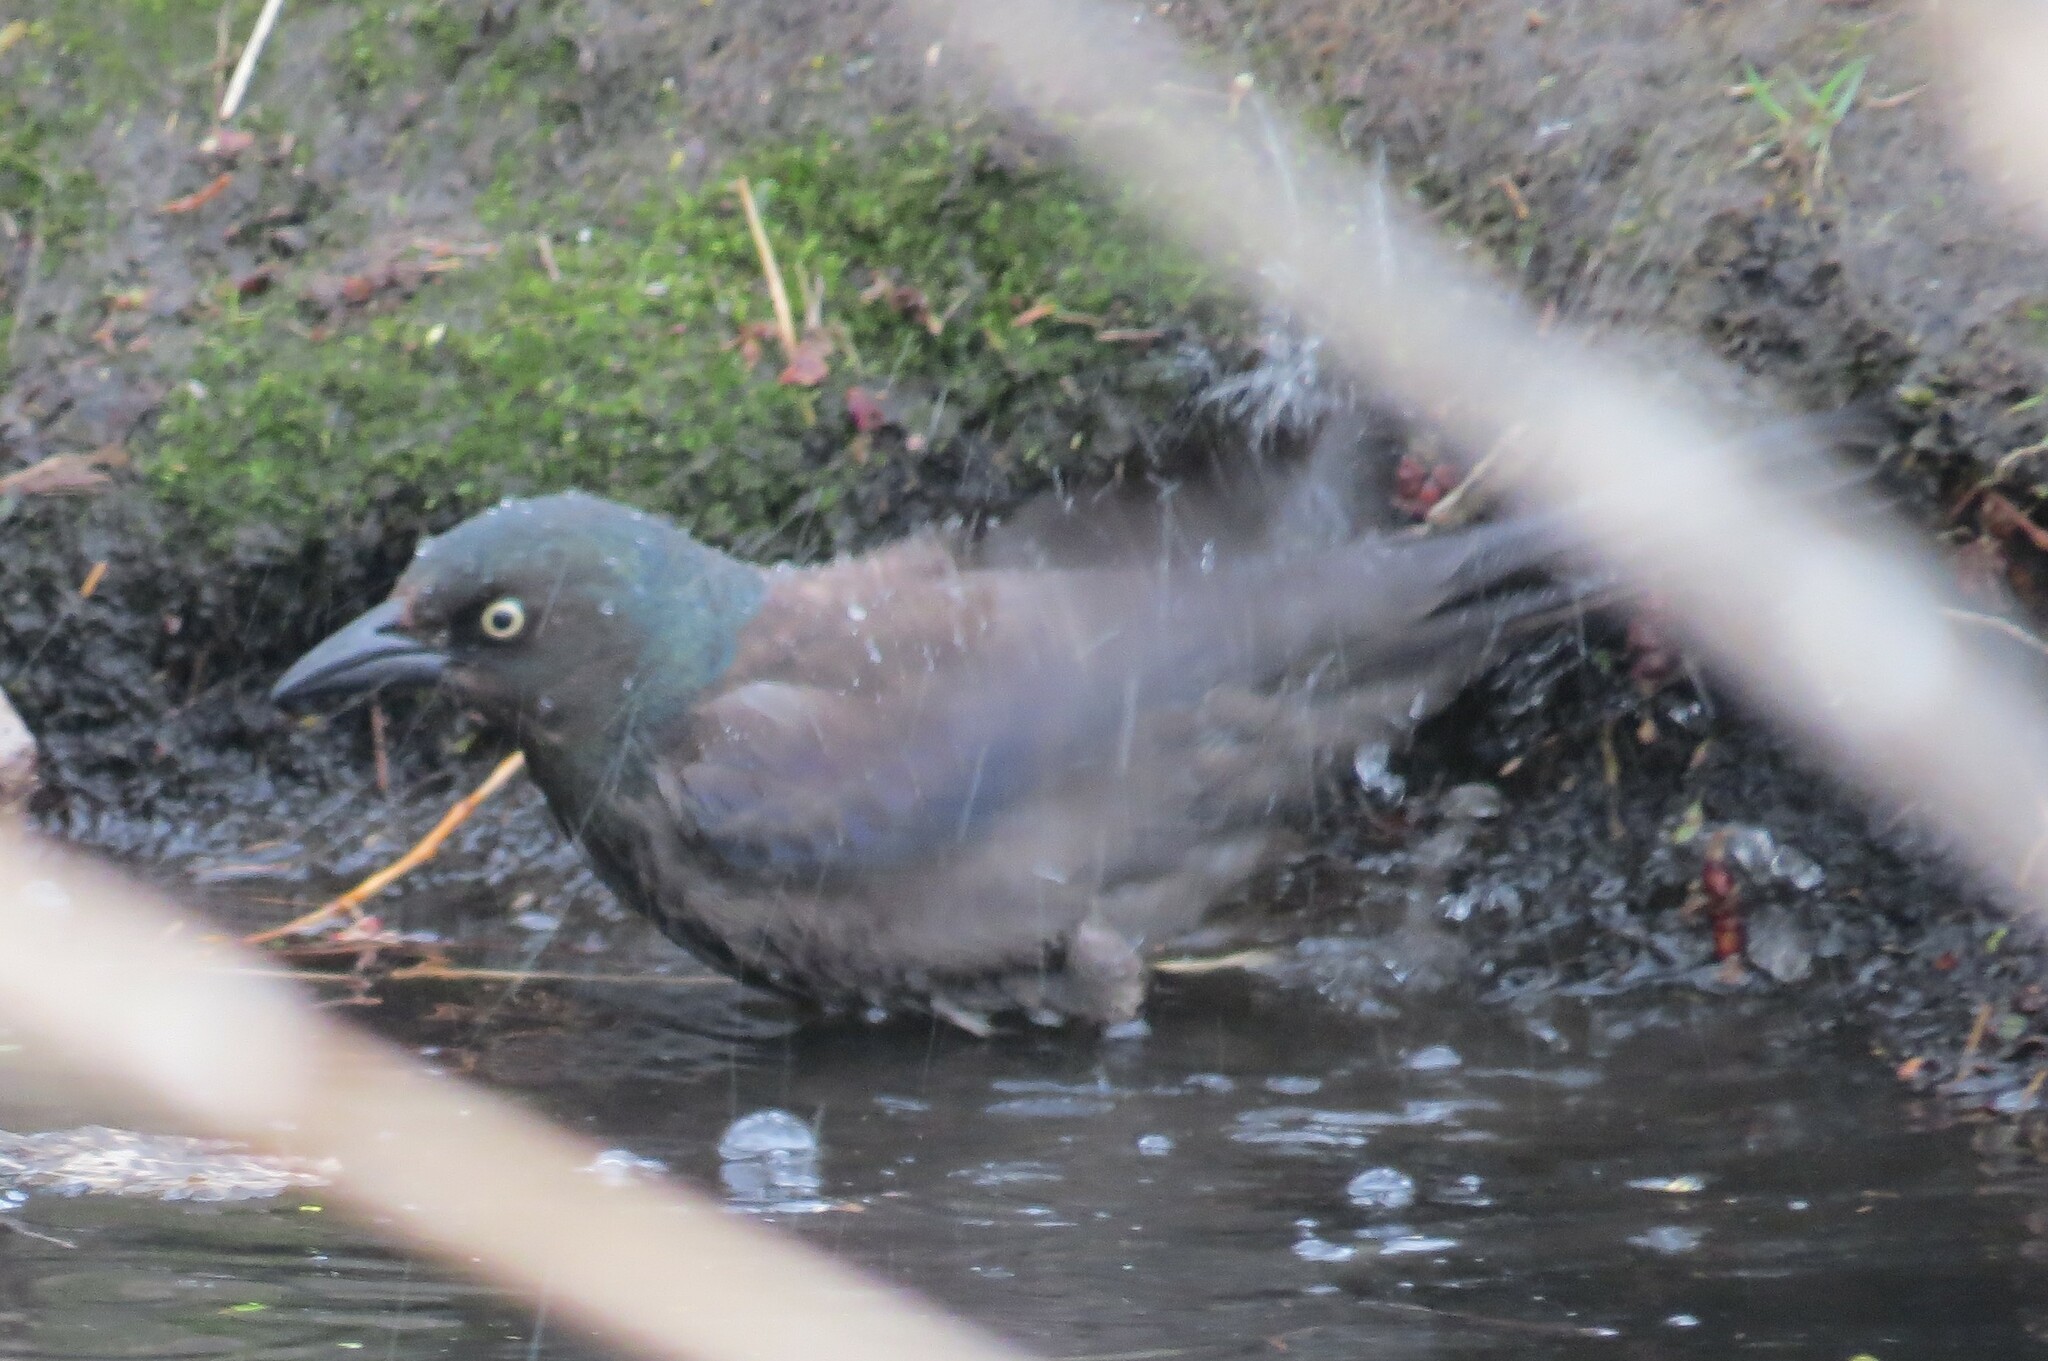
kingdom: Animalia
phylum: Chordata
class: Aves
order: Passeriformes
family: Icteridae
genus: Quiscalus
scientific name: Quiscalus quiscula
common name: Common grackle
